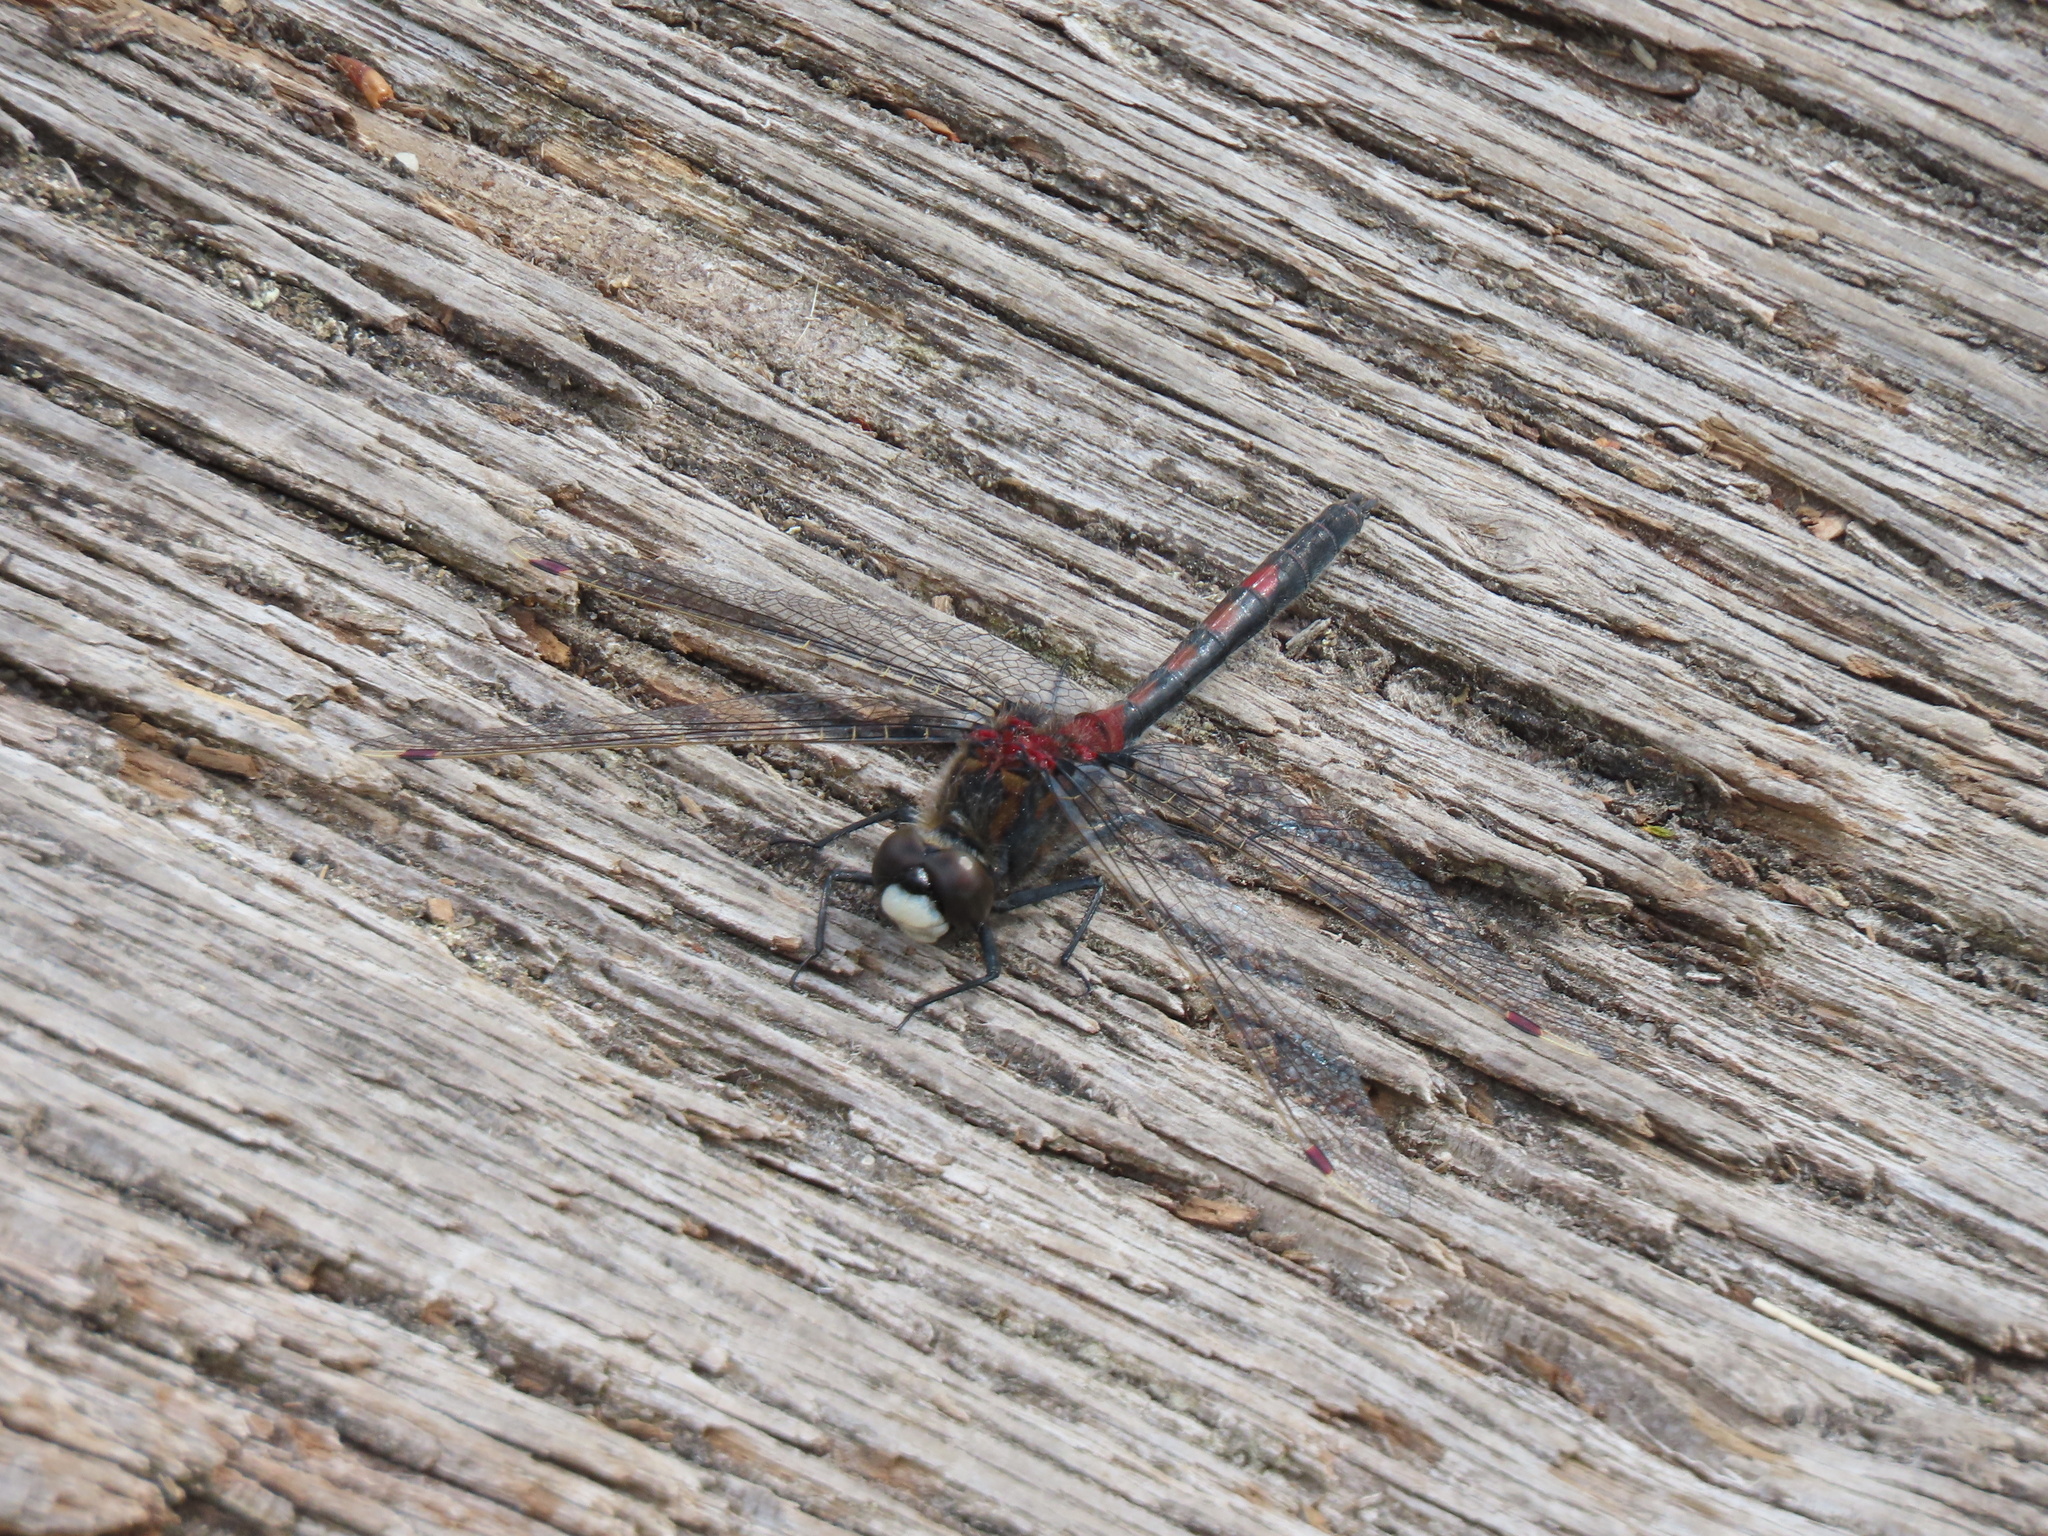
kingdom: Animalia
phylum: Arthropoda
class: Insecta
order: Odonata
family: Libellulidae
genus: Leucorrhinia
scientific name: Leucorrhinia rubicunda
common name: Ruby whiteface
